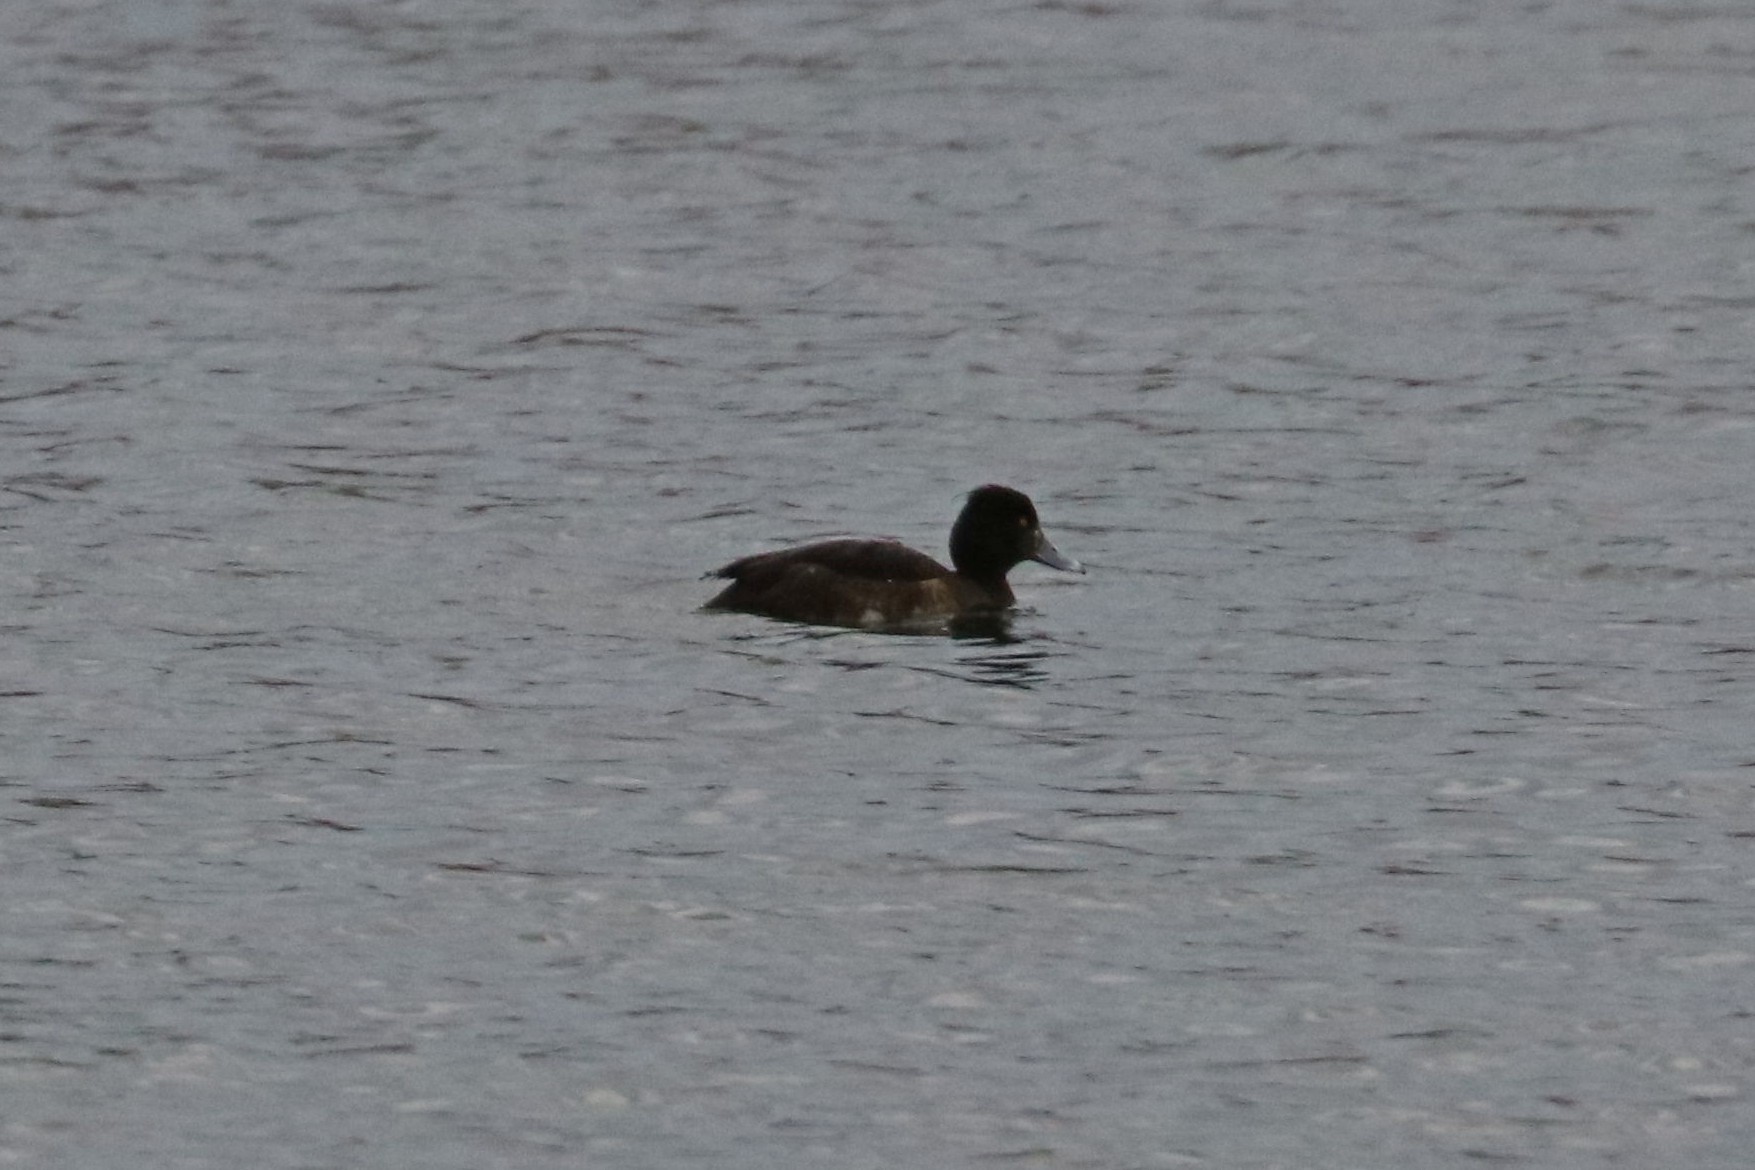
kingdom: Animalia
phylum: Chordata
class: Aves
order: Anseriformes
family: Anatidae
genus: Aythya
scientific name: Aythya fuligula
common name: Tufted duck
